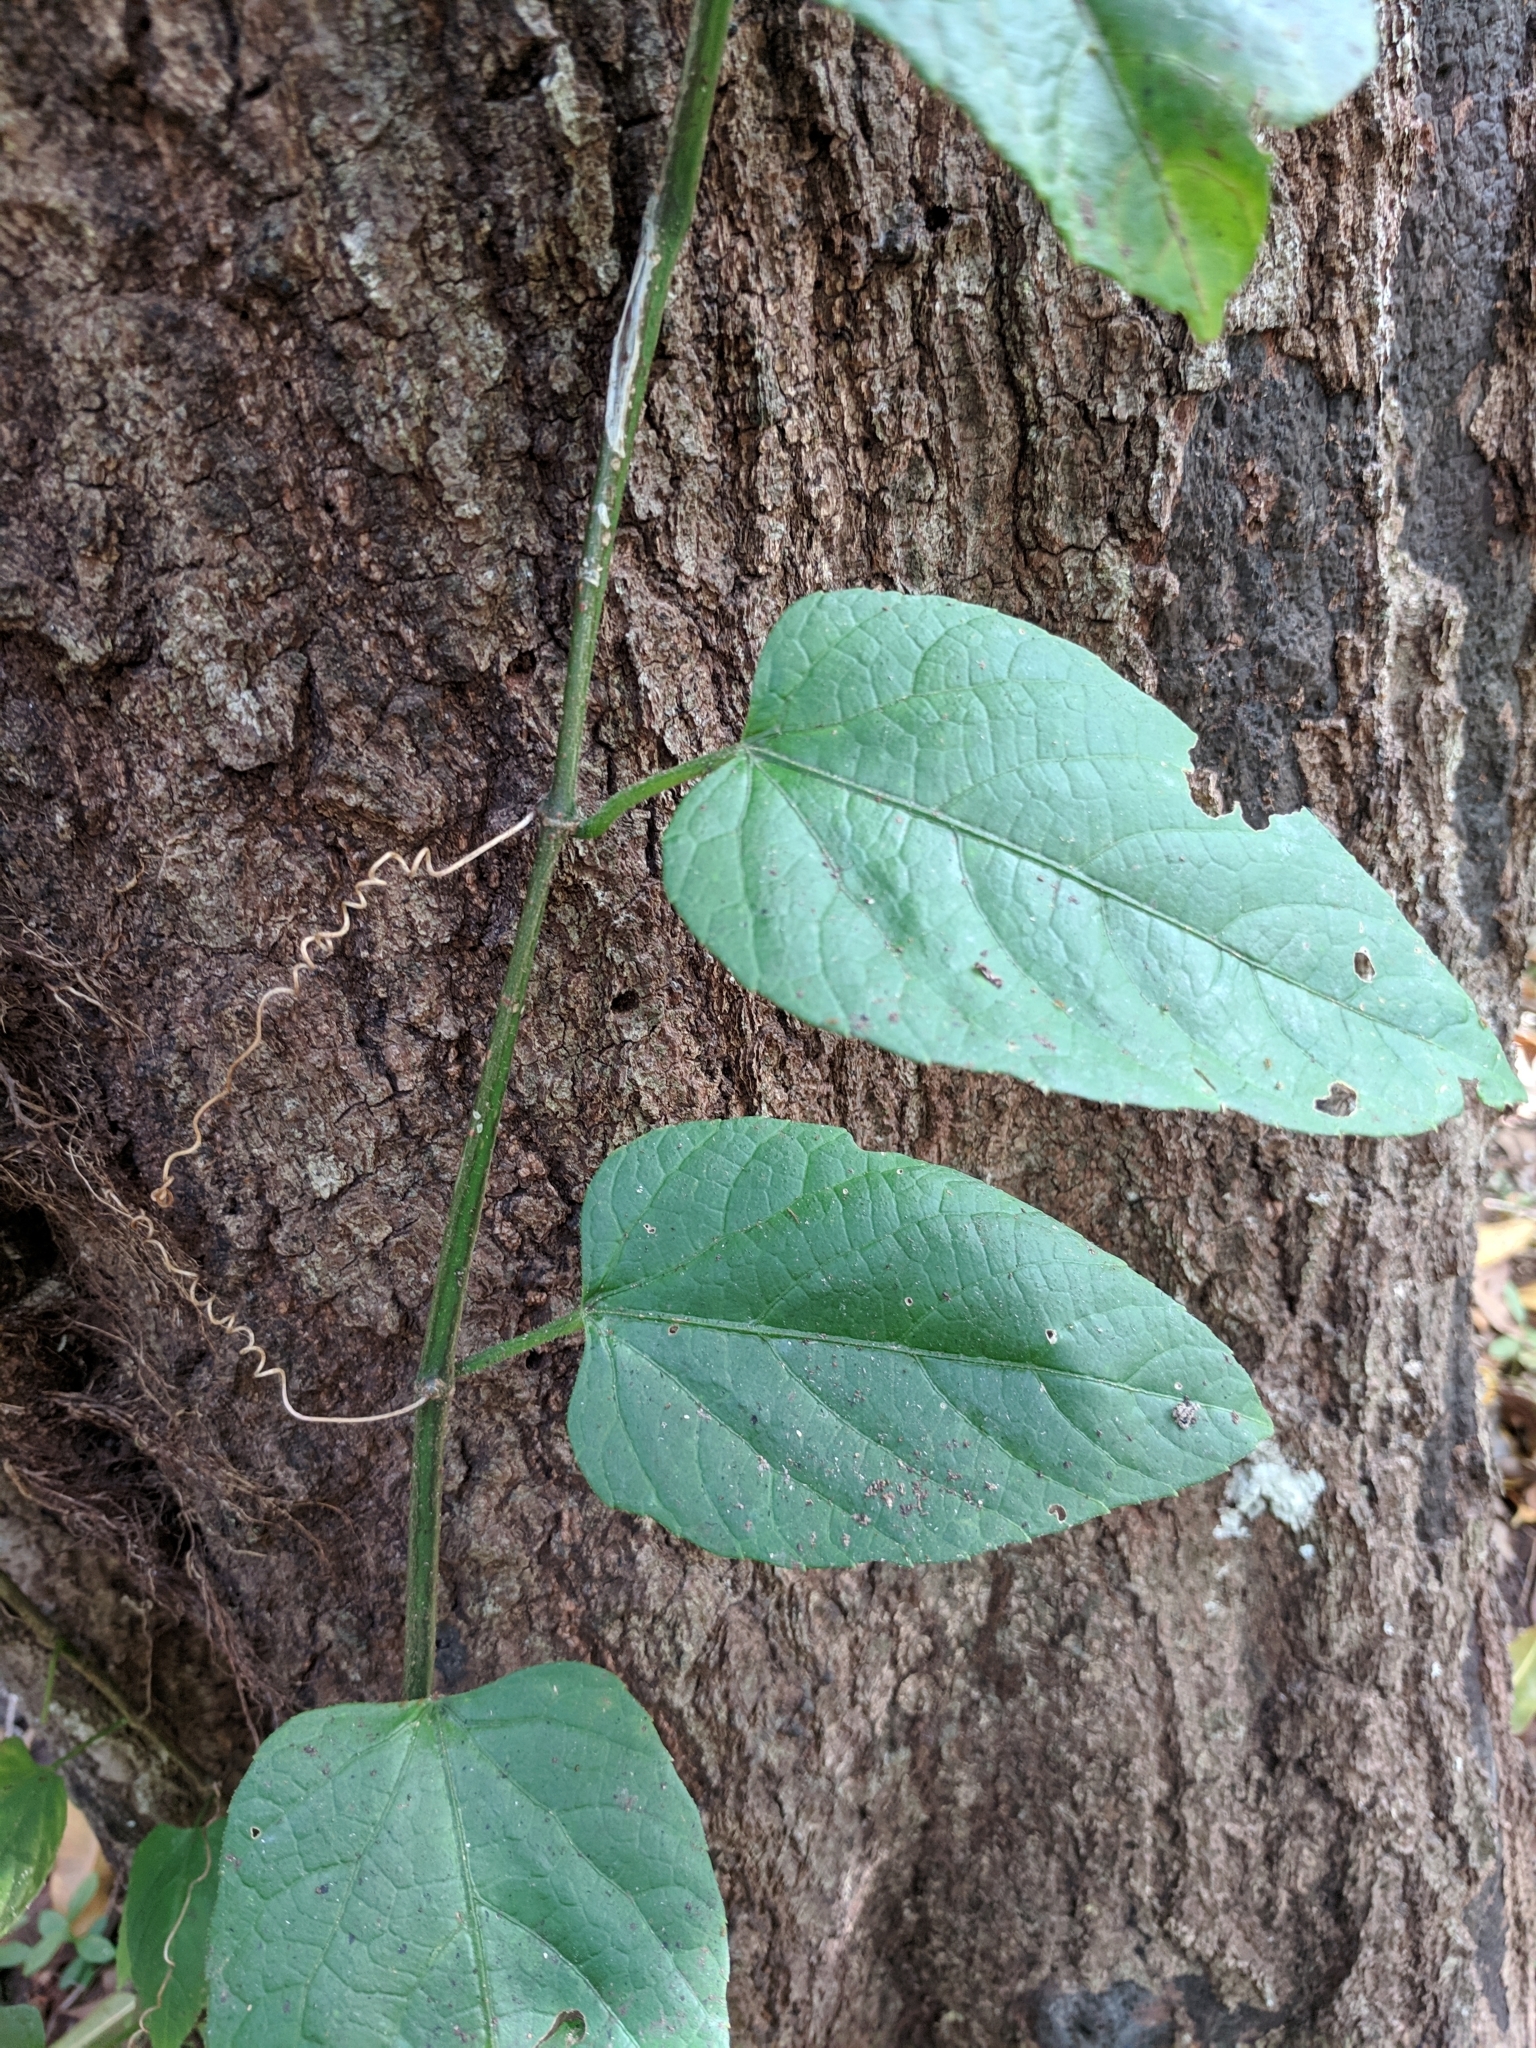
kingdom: Plantae
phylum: Tracheophyta
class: Magnoliopsida
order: Vitales
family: Vitaceae
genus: Cissus
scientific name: Cissus verticillata
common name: Princess vine
